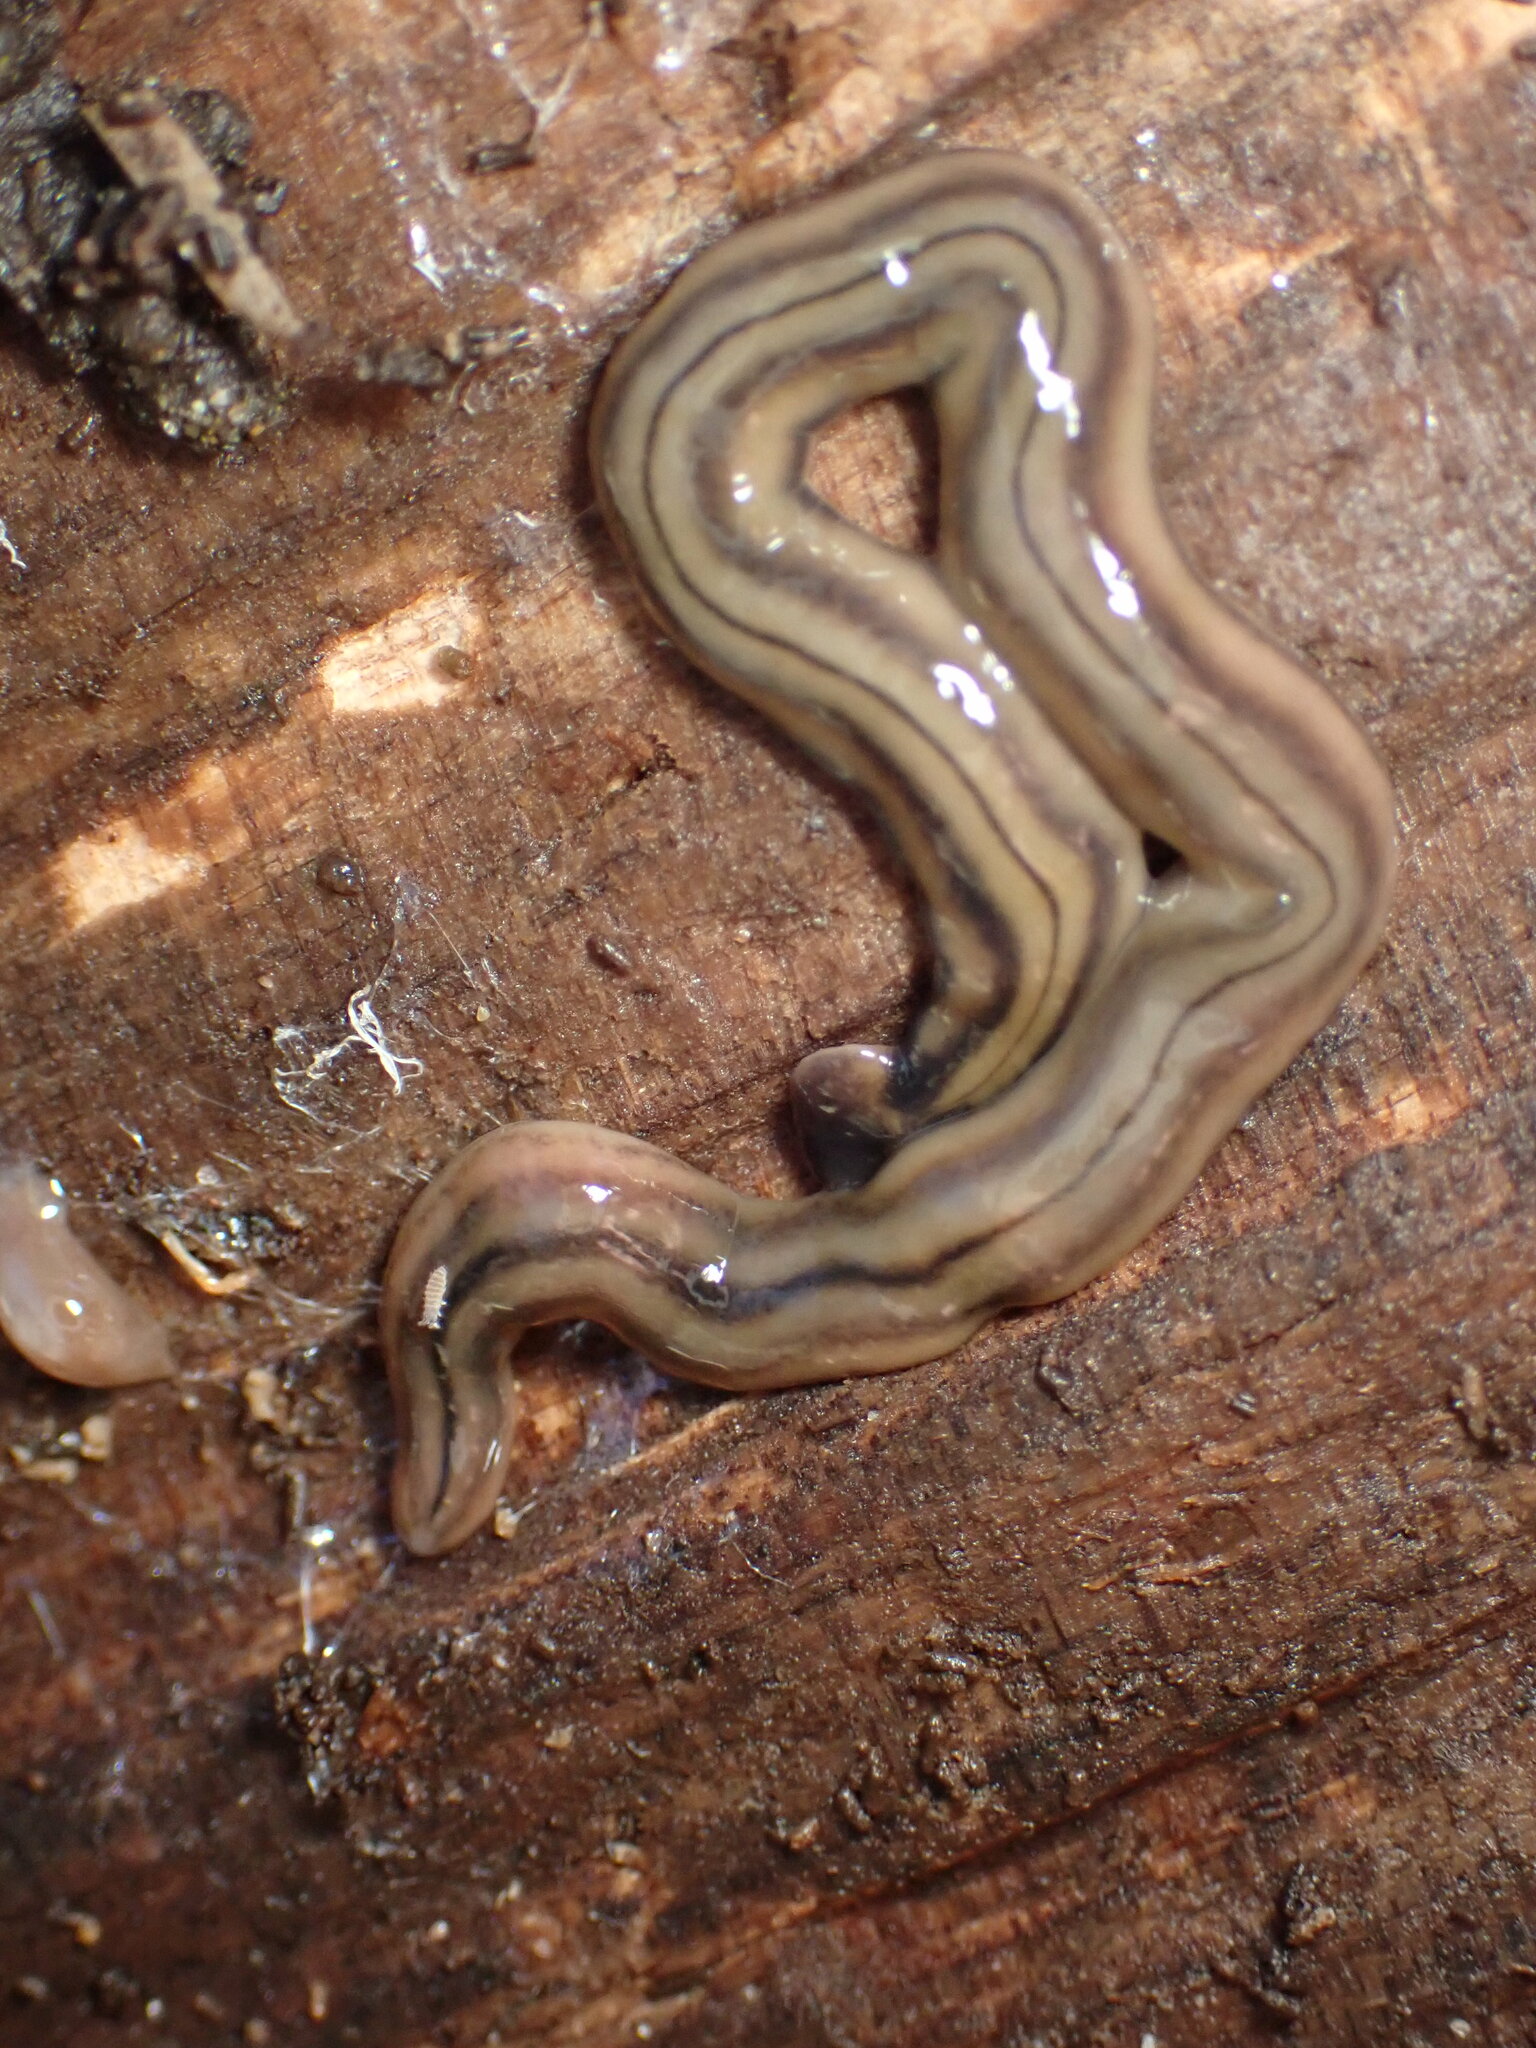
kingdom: Animalia
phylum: Platyhelminthes
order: Tricladida
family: Geoplanidae
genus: Bipalium
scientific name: Bipalium kewense
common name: Hammerhead flatworm
